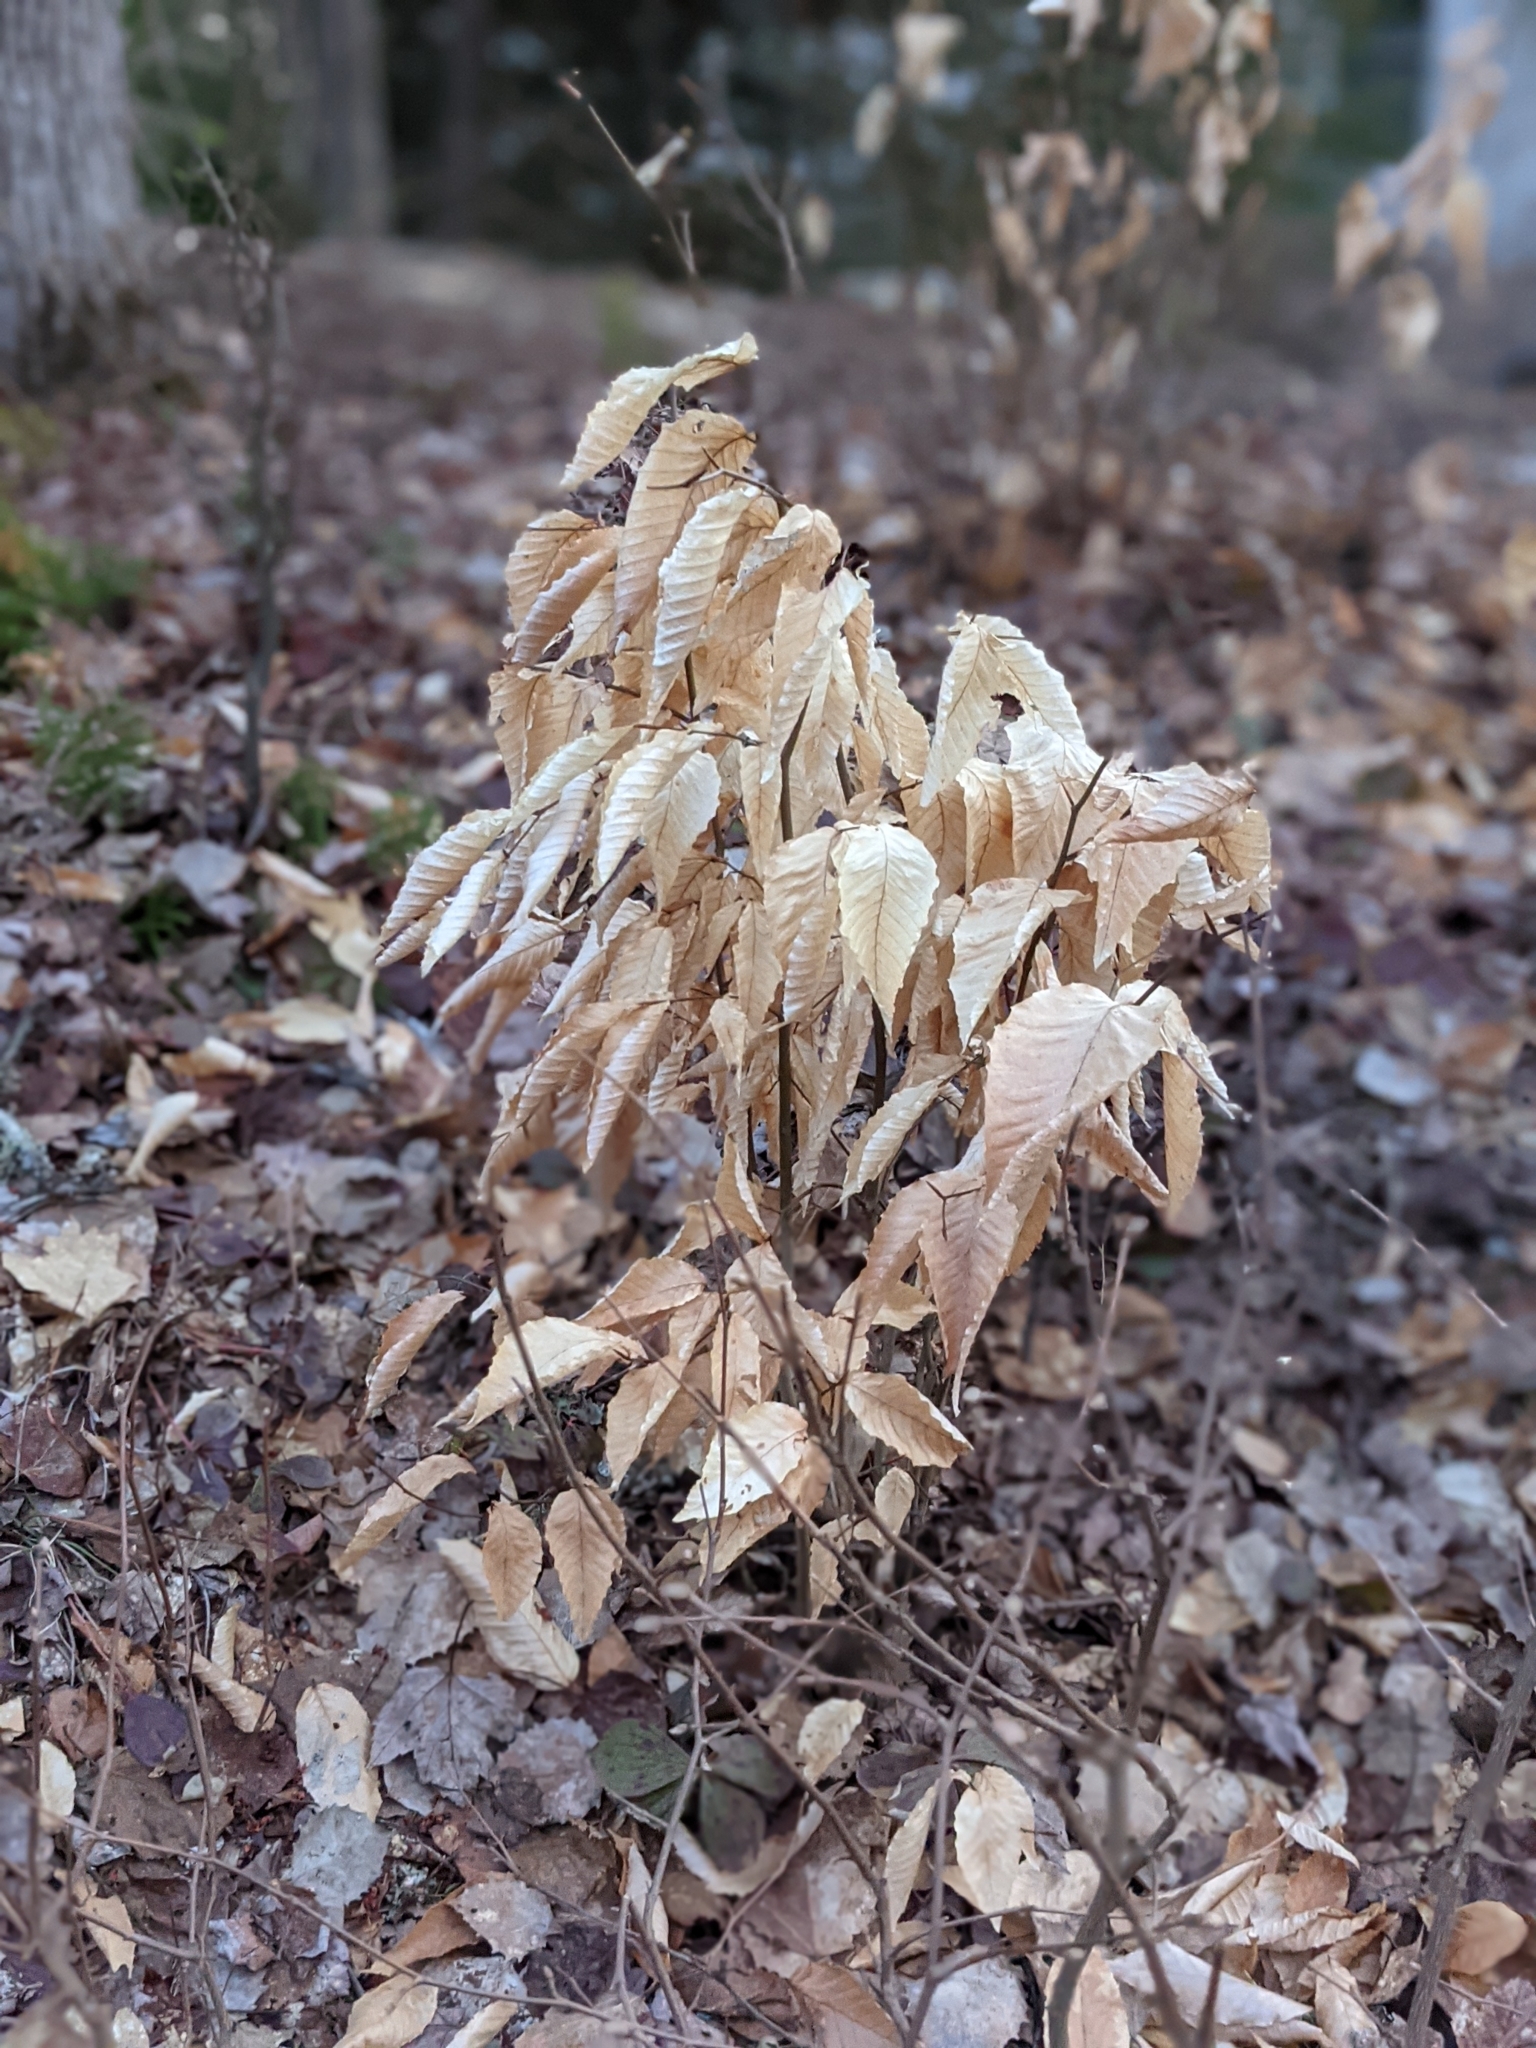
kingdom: Plantae
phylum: Tracheophyta
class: Magnoliopsida
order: Fagales
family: Fagaceae
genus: Fagus
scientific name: Fagus grandifolia
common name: American beech
